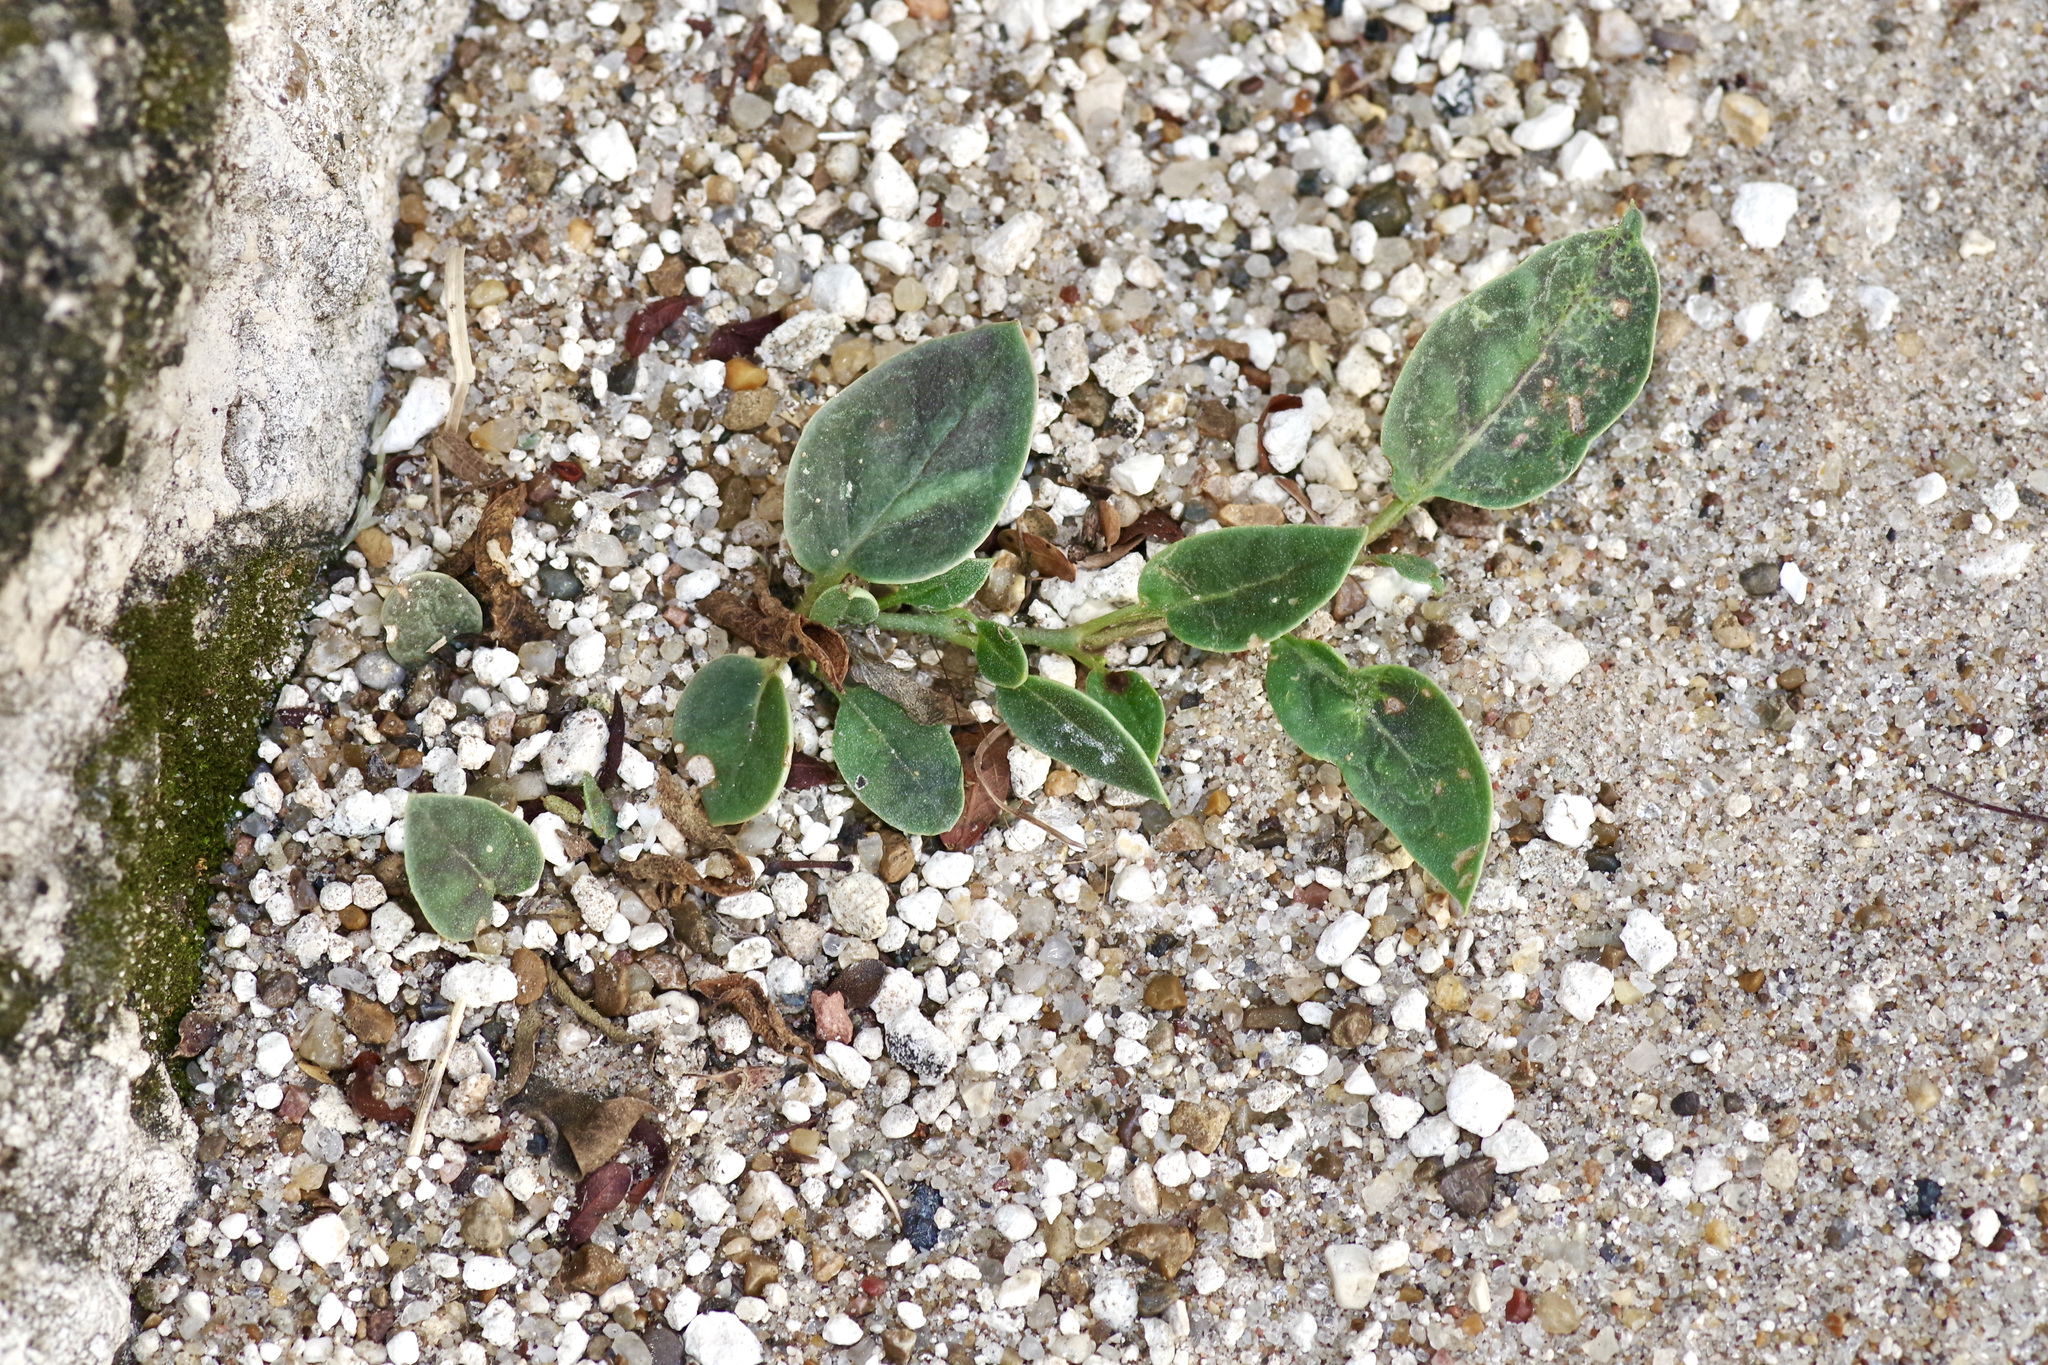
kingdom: Plantae
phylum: Tracheophyta
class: Magnoliopsida
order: Caryophyllales
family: Nyctaginaceae
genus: Acleisanthes
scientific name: Acleisanthes anisophylla
